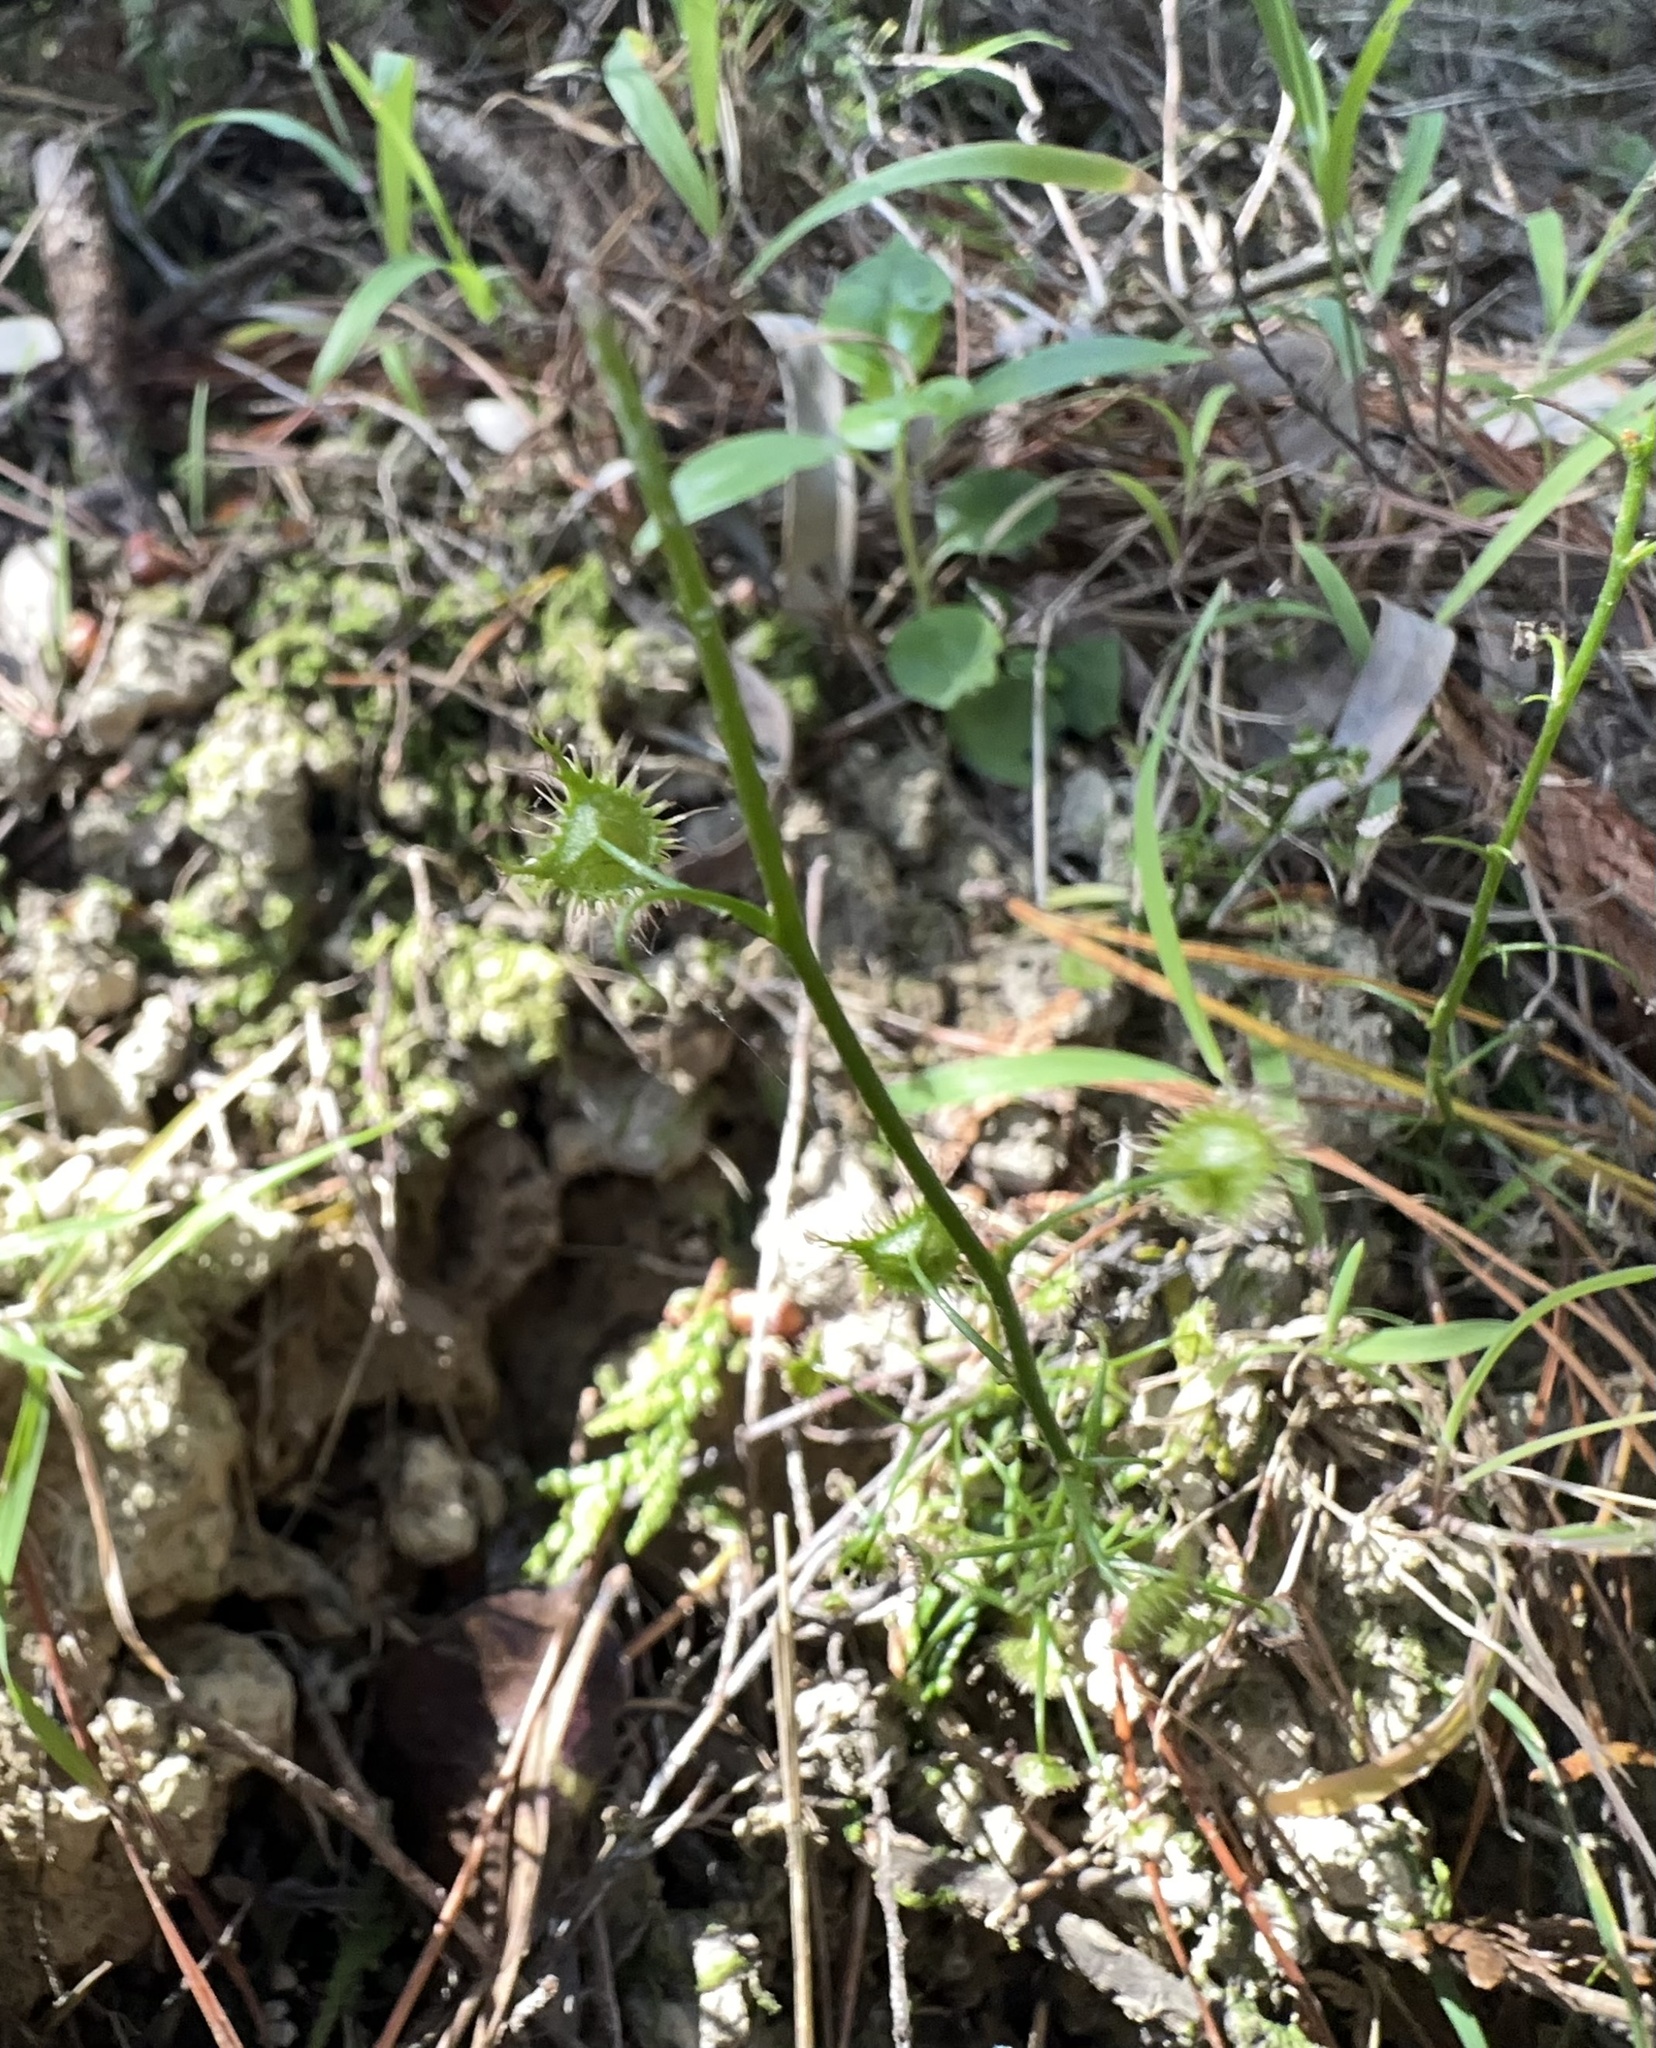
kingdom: Plantae
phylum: Tracheophyta
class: Magnoliopsida
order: Caryophyllales
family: Droseraceae
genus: Drosera
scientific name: Drosera peltata
